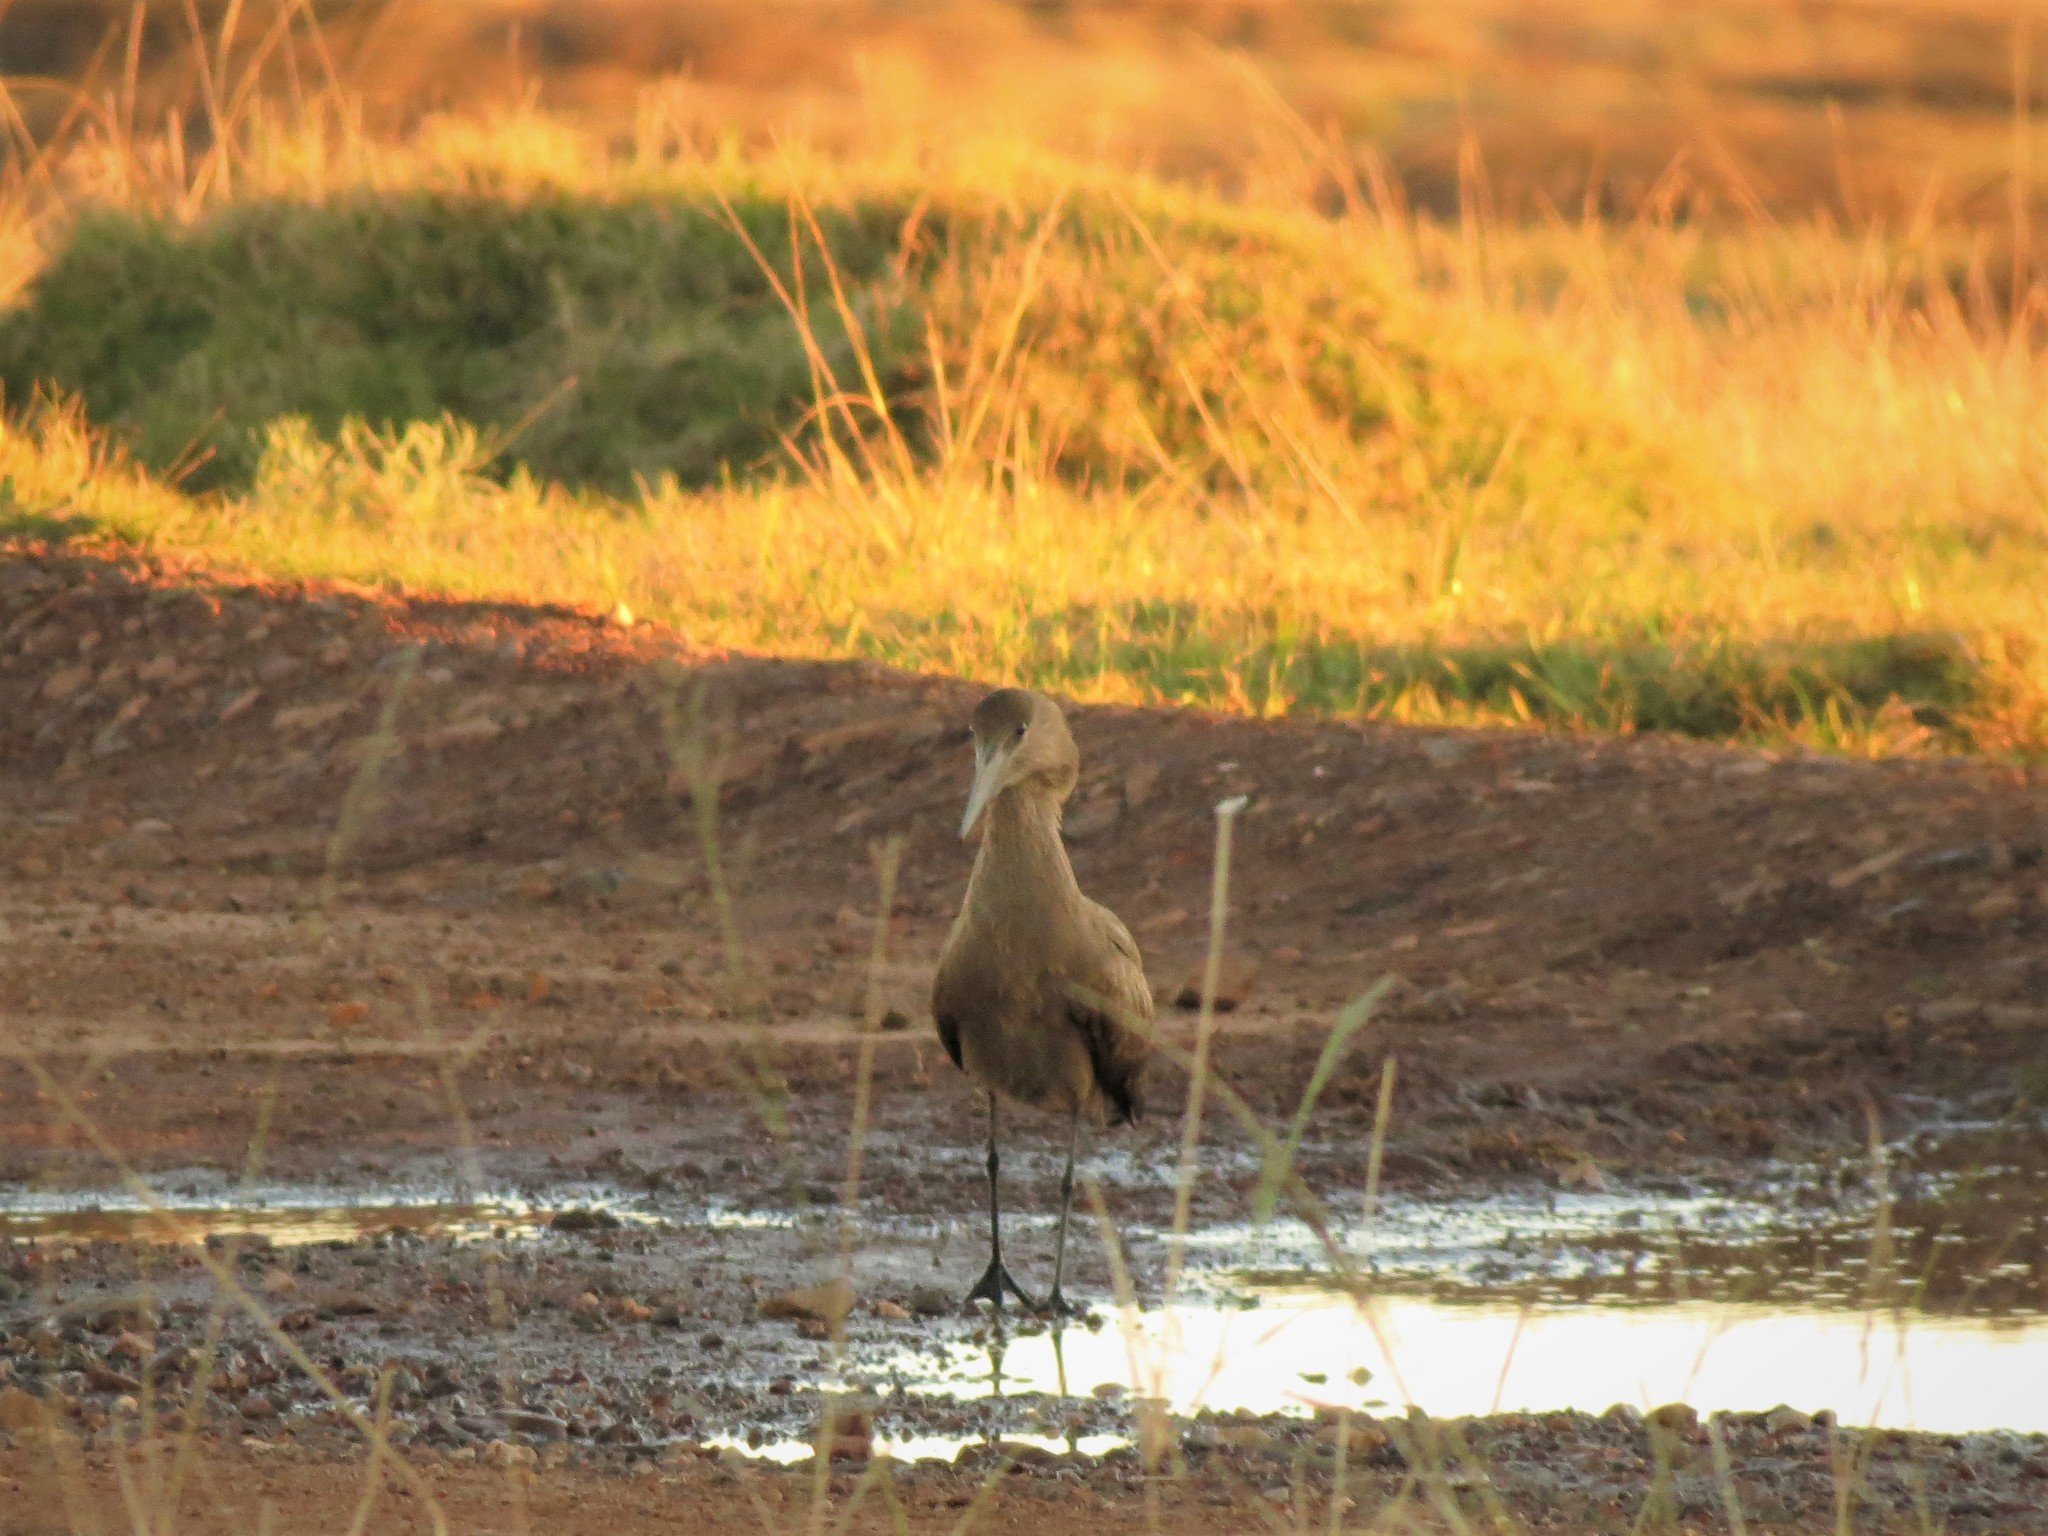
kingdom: Animalia
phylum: Chordata
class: Aves
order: Pelecaniformes
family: Scopidae
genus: Scopus
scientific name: Scopus umbretta
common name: Hamerkop
